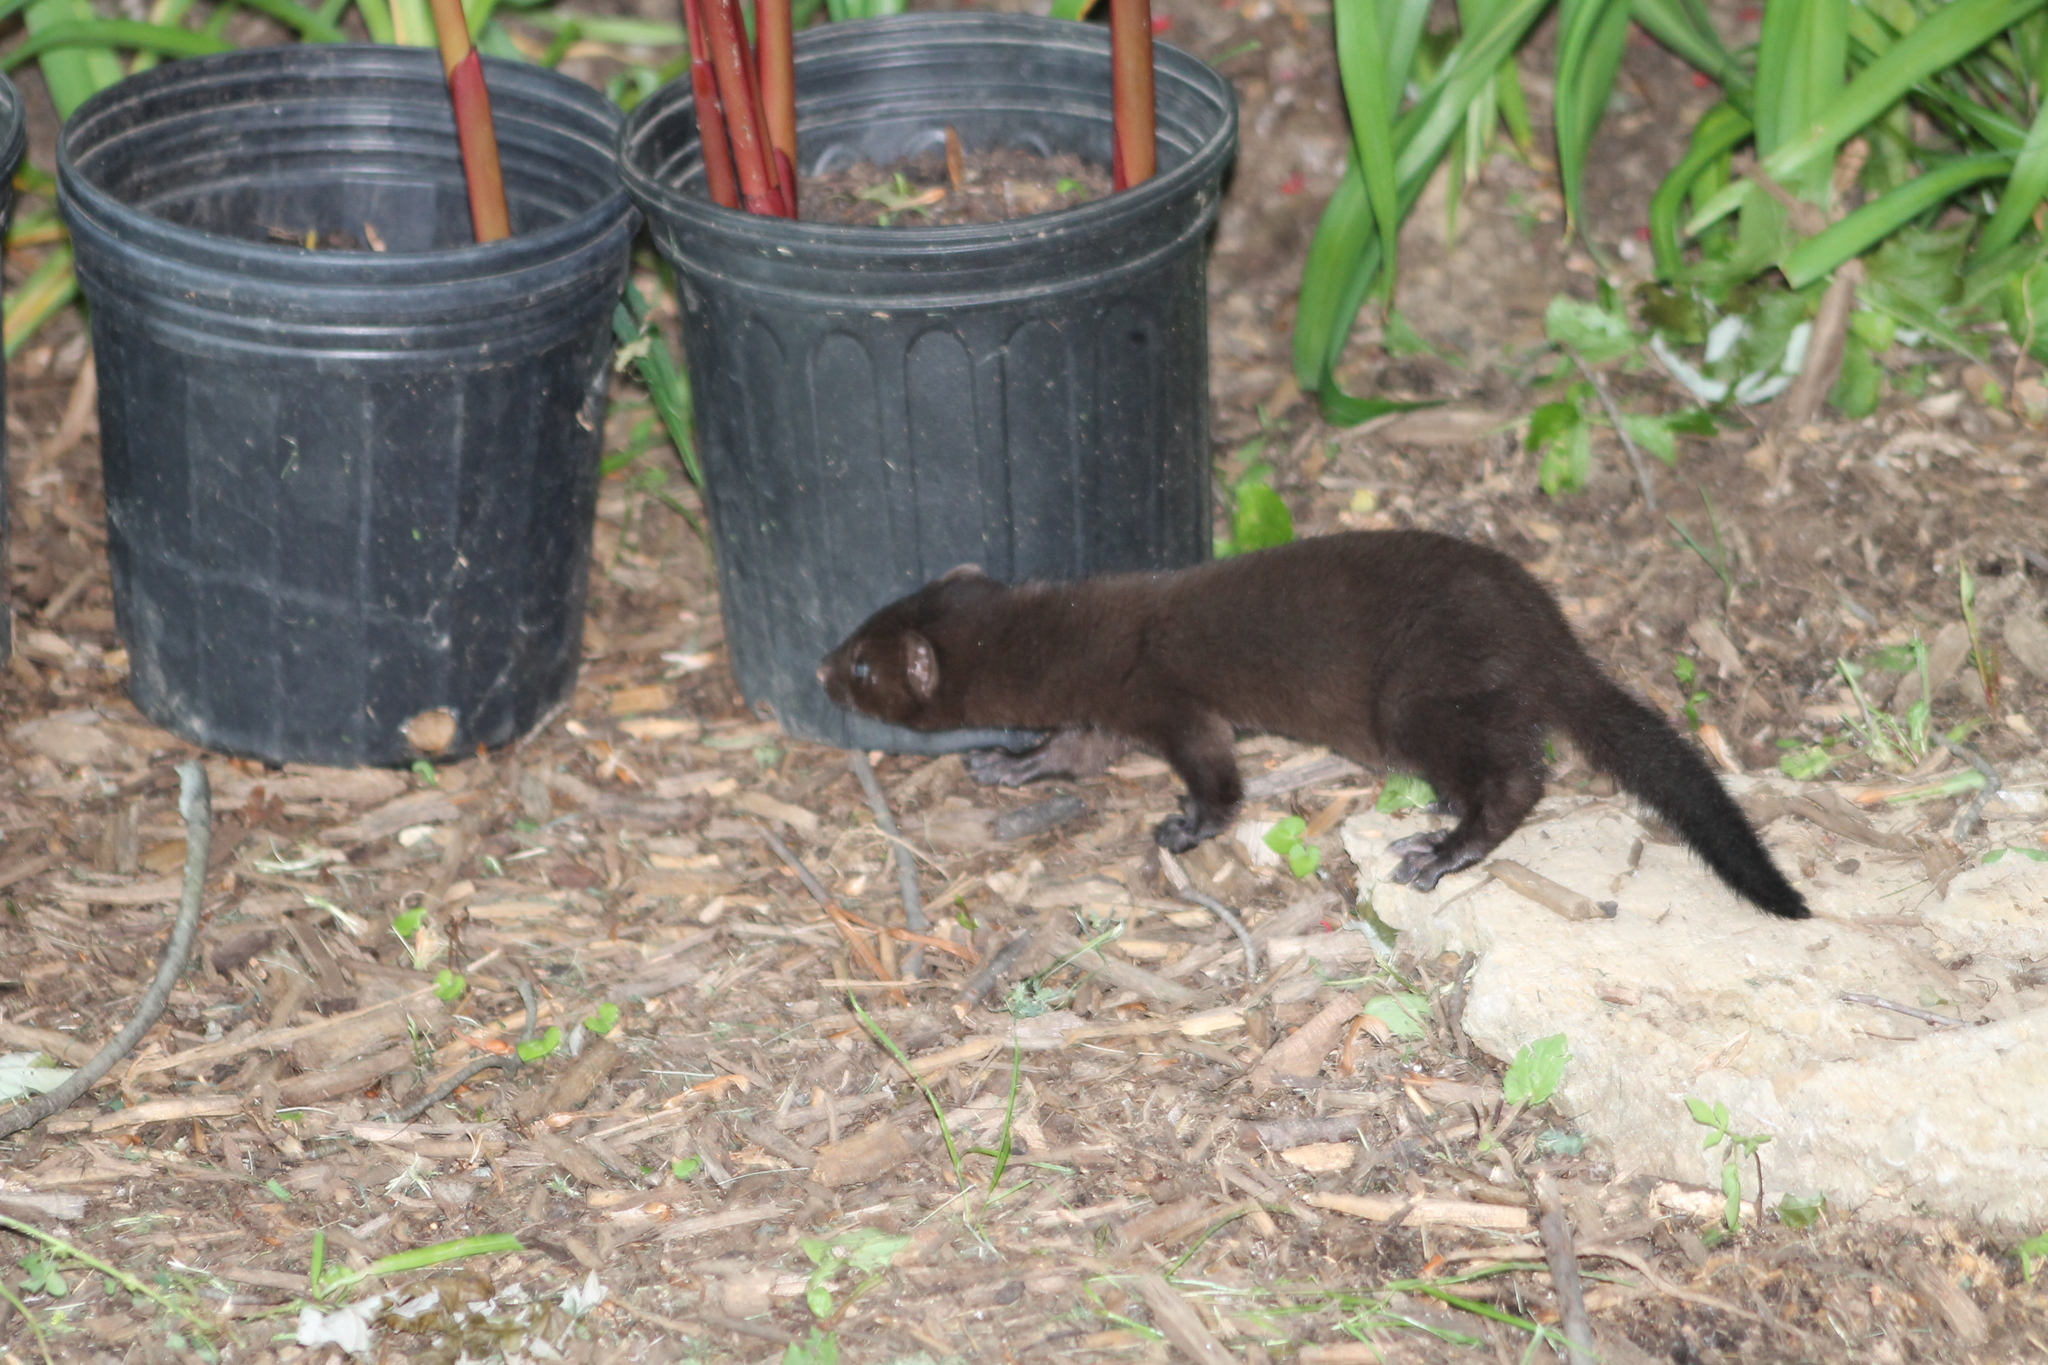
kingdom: Animalia
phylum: Chordata
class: Mammalia
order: Carnivora
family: Mustelidae
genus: Mustela
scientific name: Mustela
